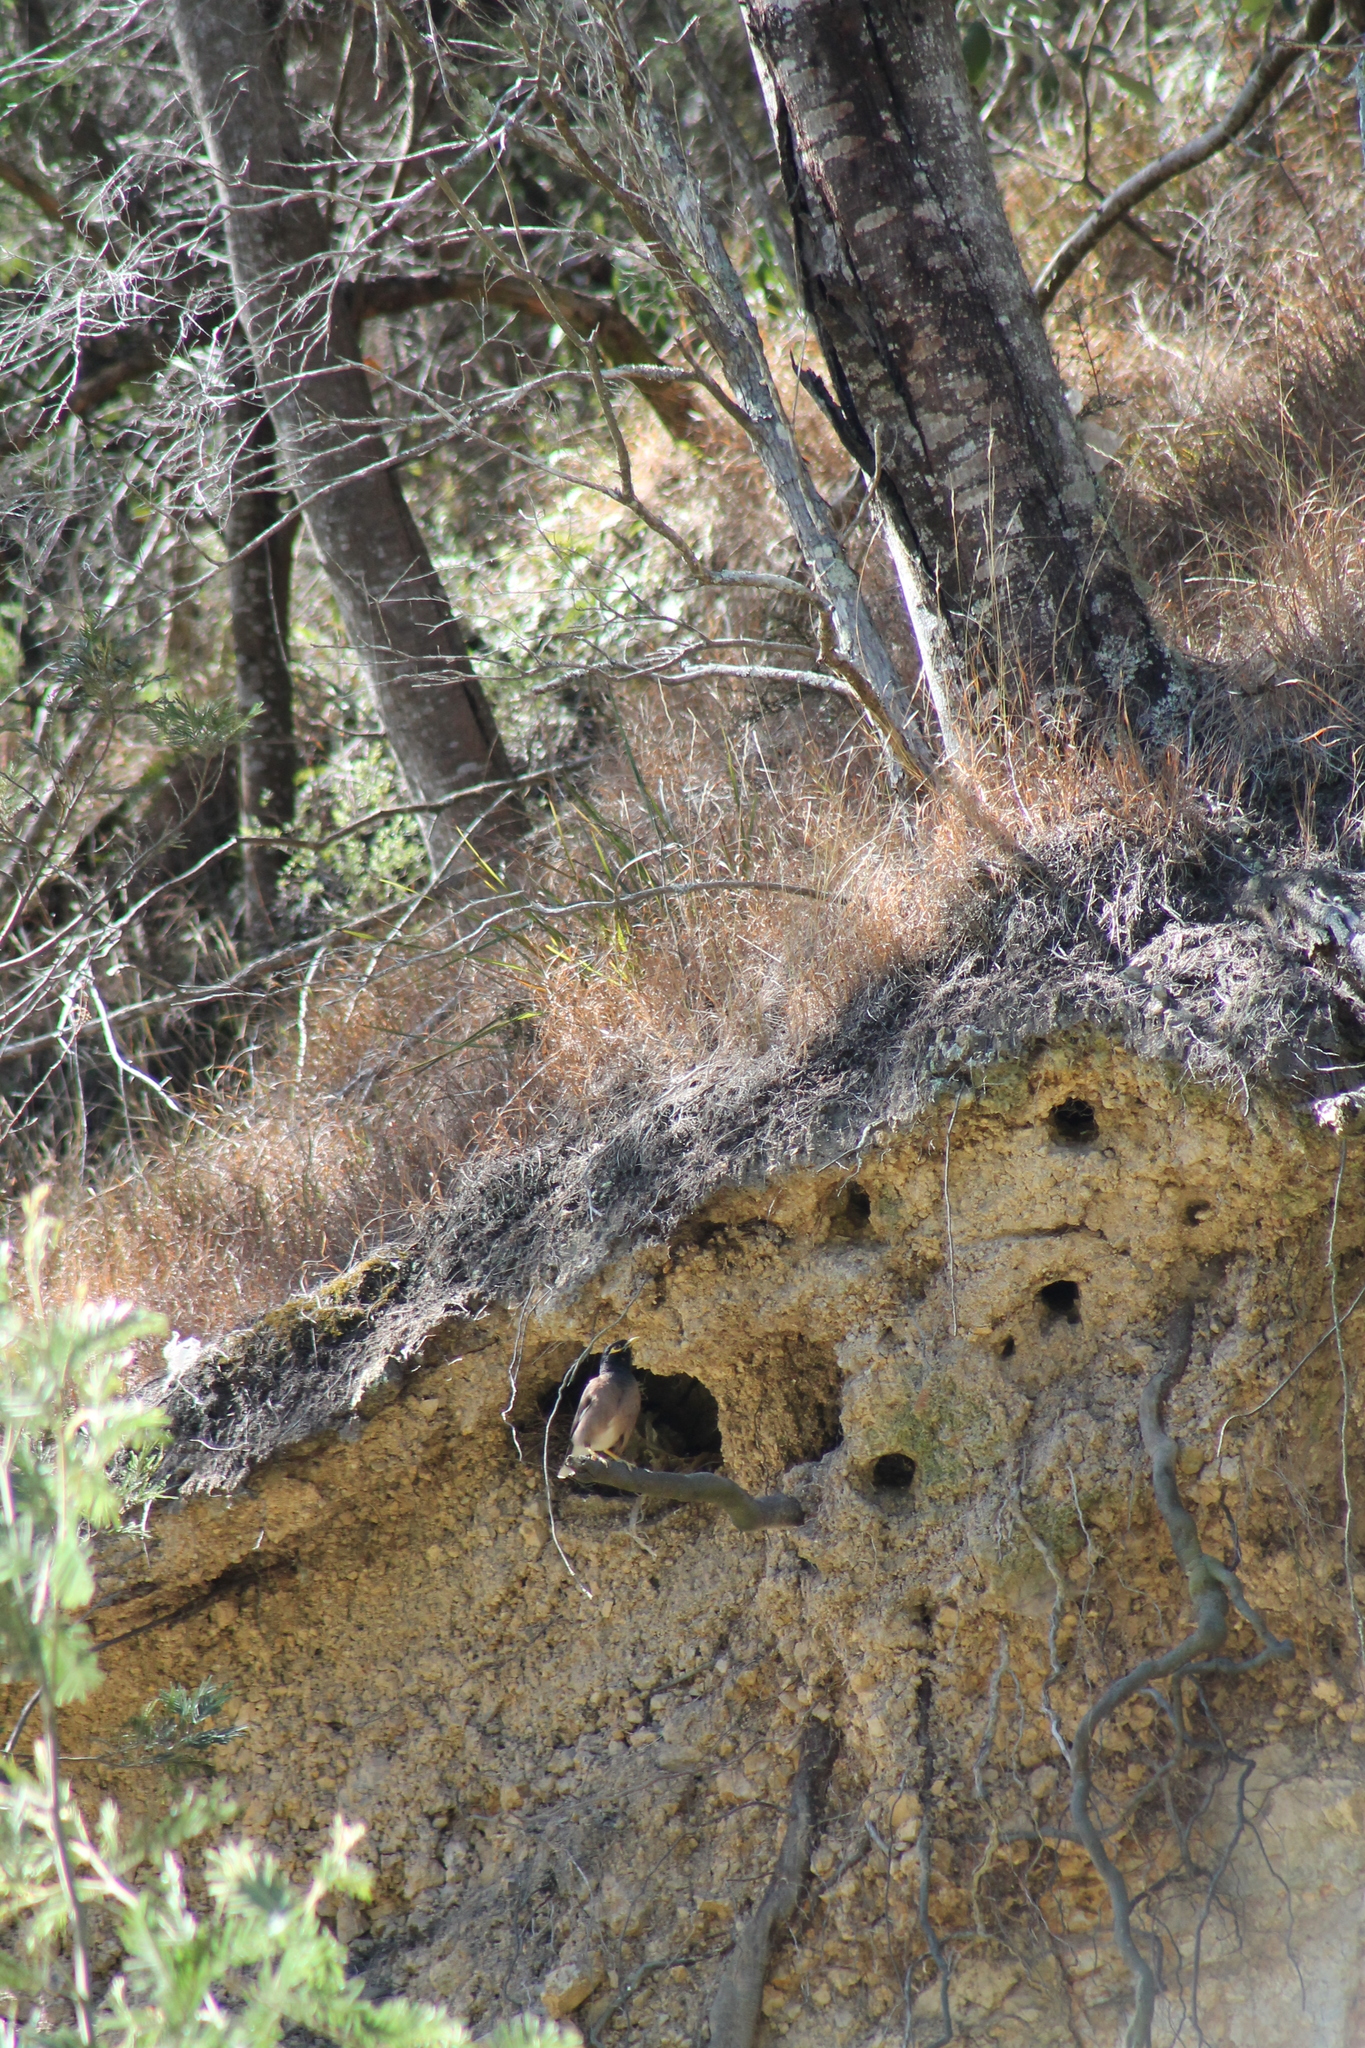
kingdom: Animalia
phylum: Chordata
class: Aves
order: Passeriformes
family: Sturnidae
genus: Acridotheres
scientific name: Acridotheres tristis
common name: Common myna
